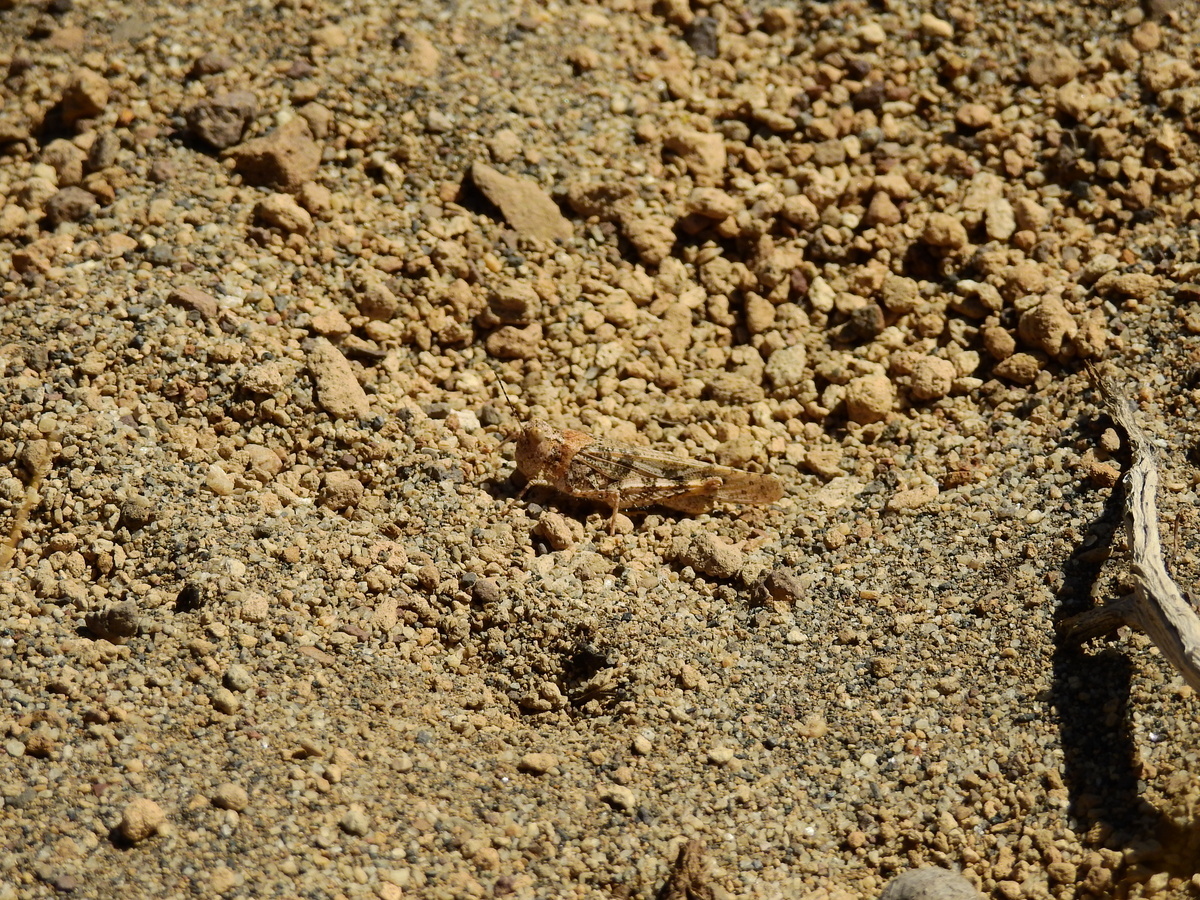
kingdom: Animalia
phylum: Arthropoda
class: Insecta
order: Orthoptera
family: Acrididae
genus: Trimerotropis
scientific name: Trimerotropis pallidipennis
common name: Pallid-winged grasshopper
